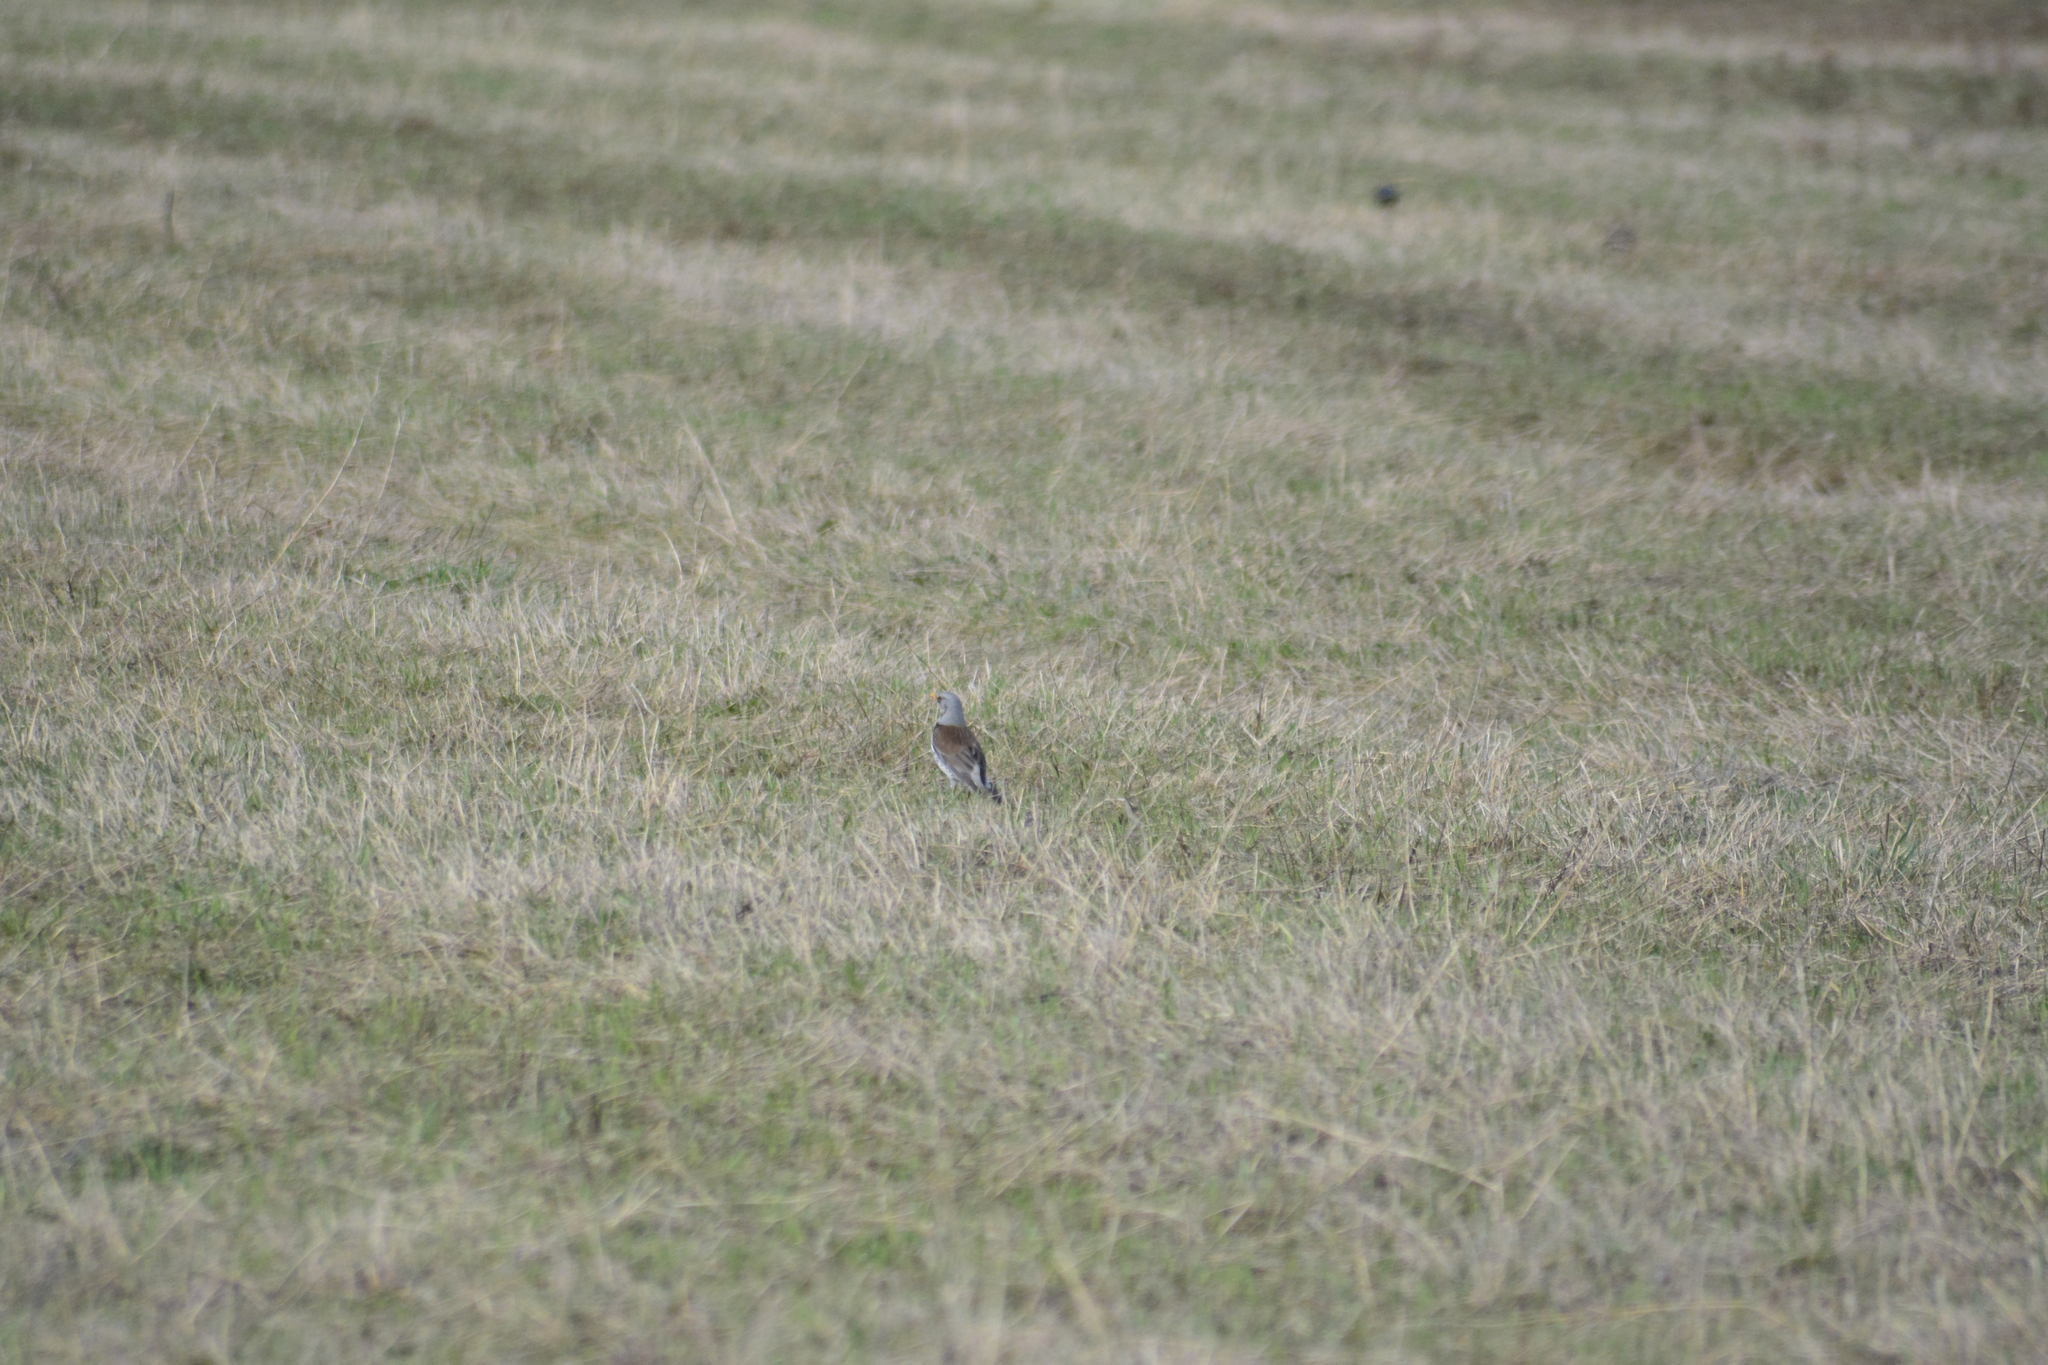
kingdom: Animalia
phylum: Chordata
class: Aves
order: Passeriformes
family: Turdidae
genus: Turdus
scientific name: Turdus pilaris
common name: Fieldfare
